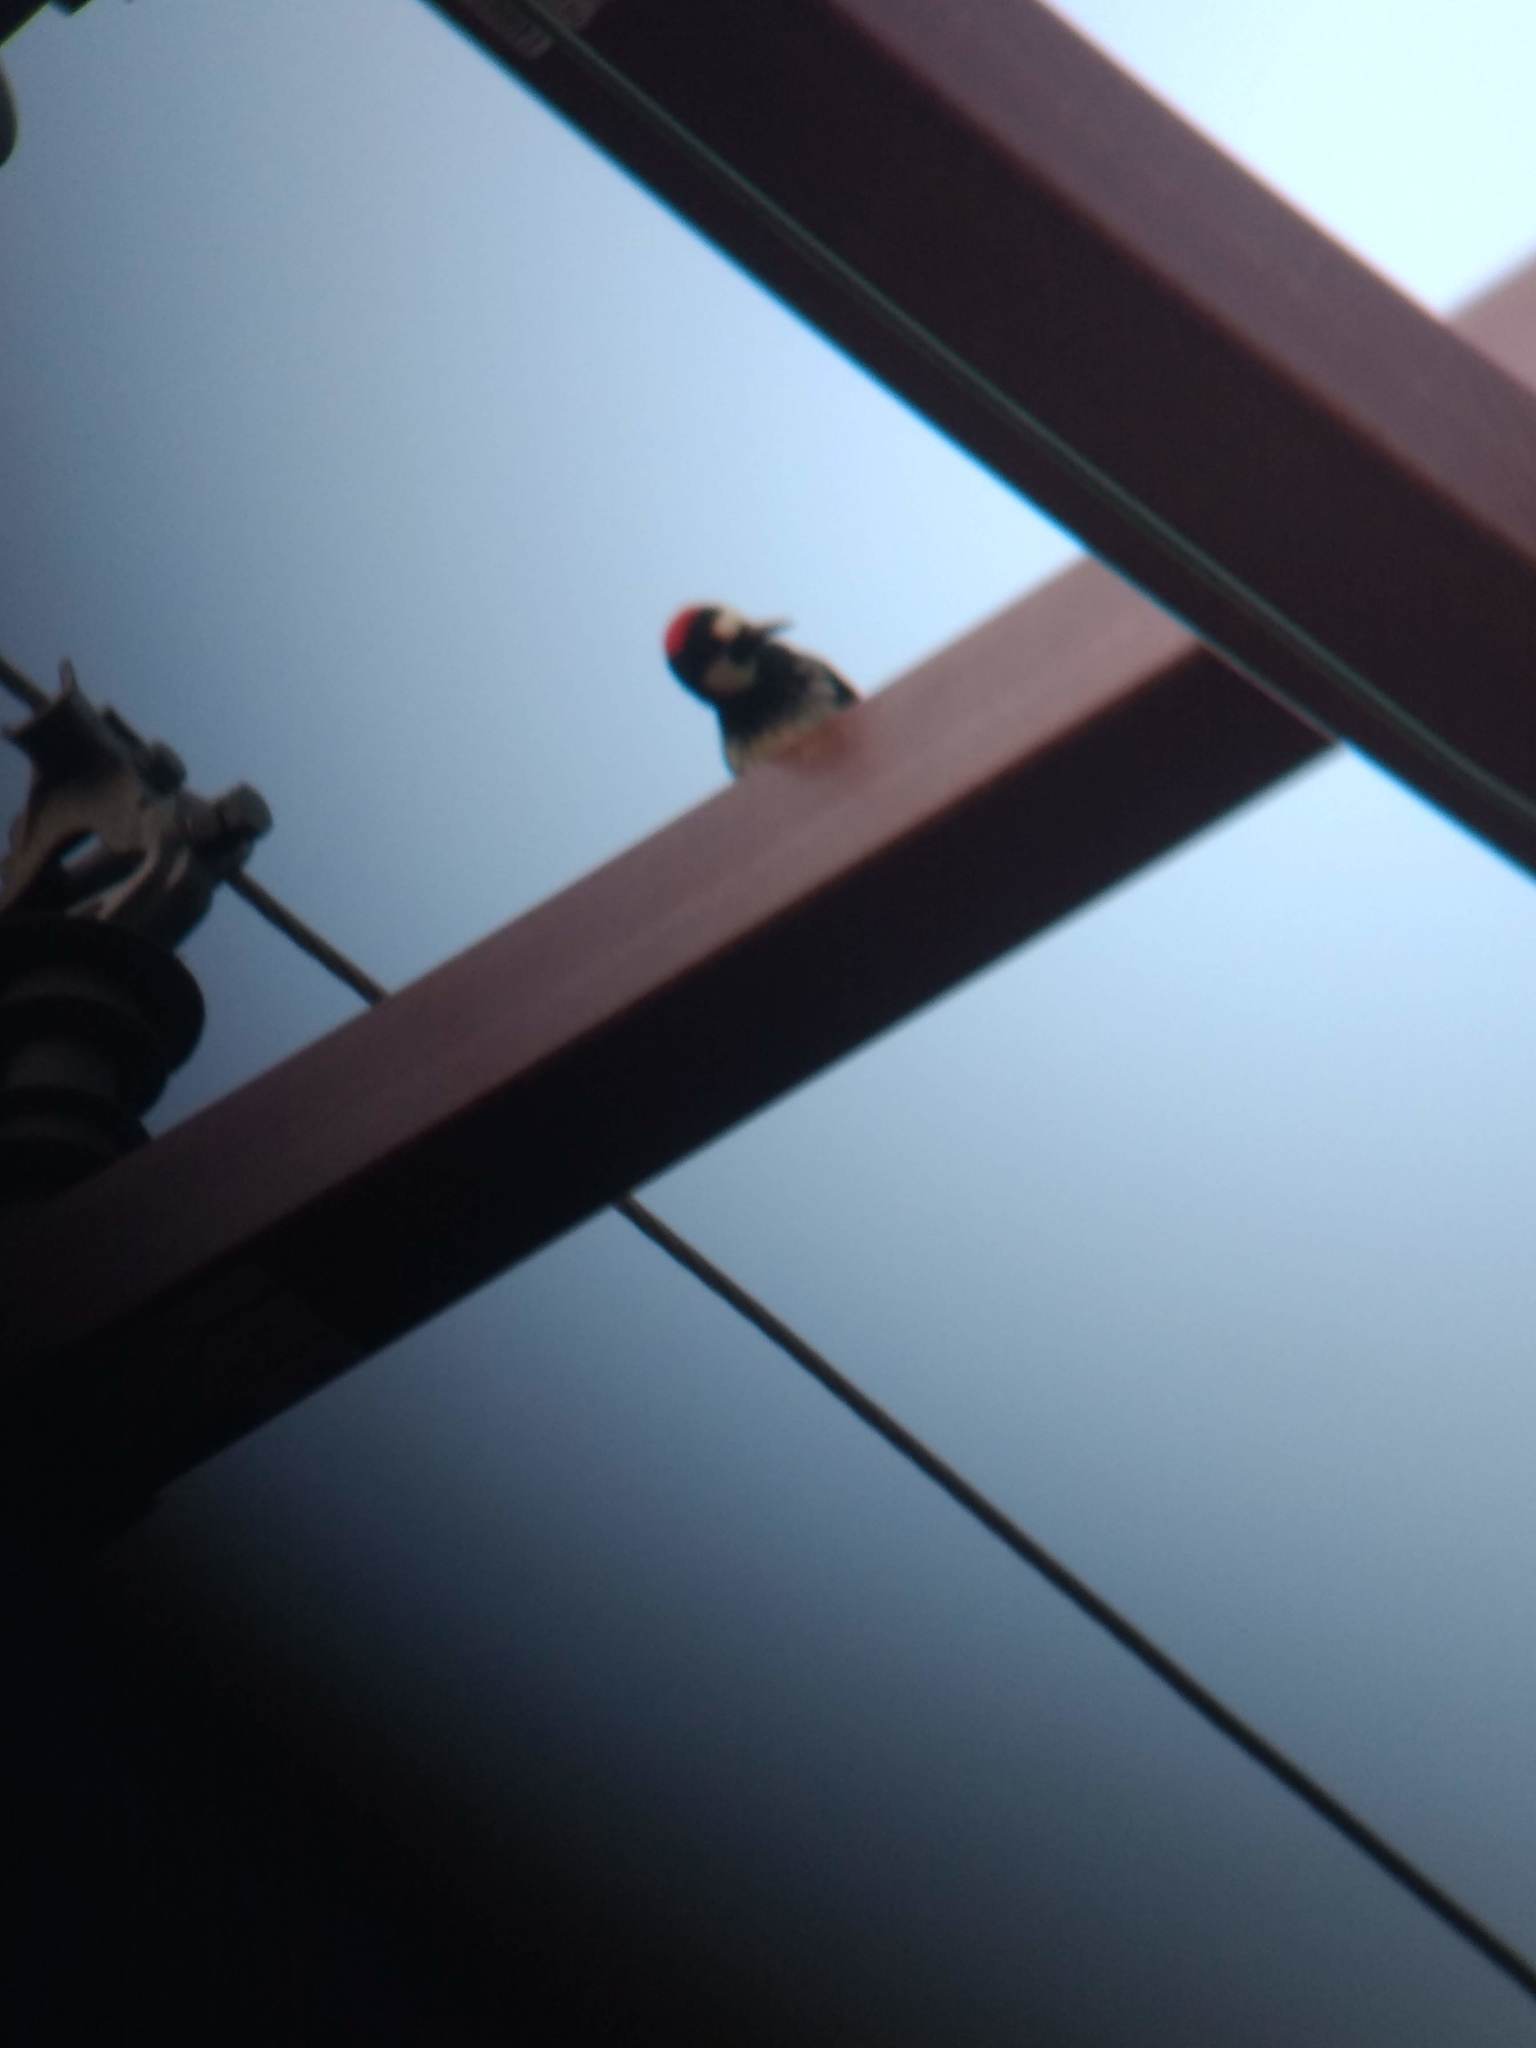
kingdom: Animalia
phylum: Chordata
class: Aves
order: Piciformes
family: Picidae
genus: Melanerpes
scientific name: Melanerpes formicivorus
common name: Acorn woodpecker
